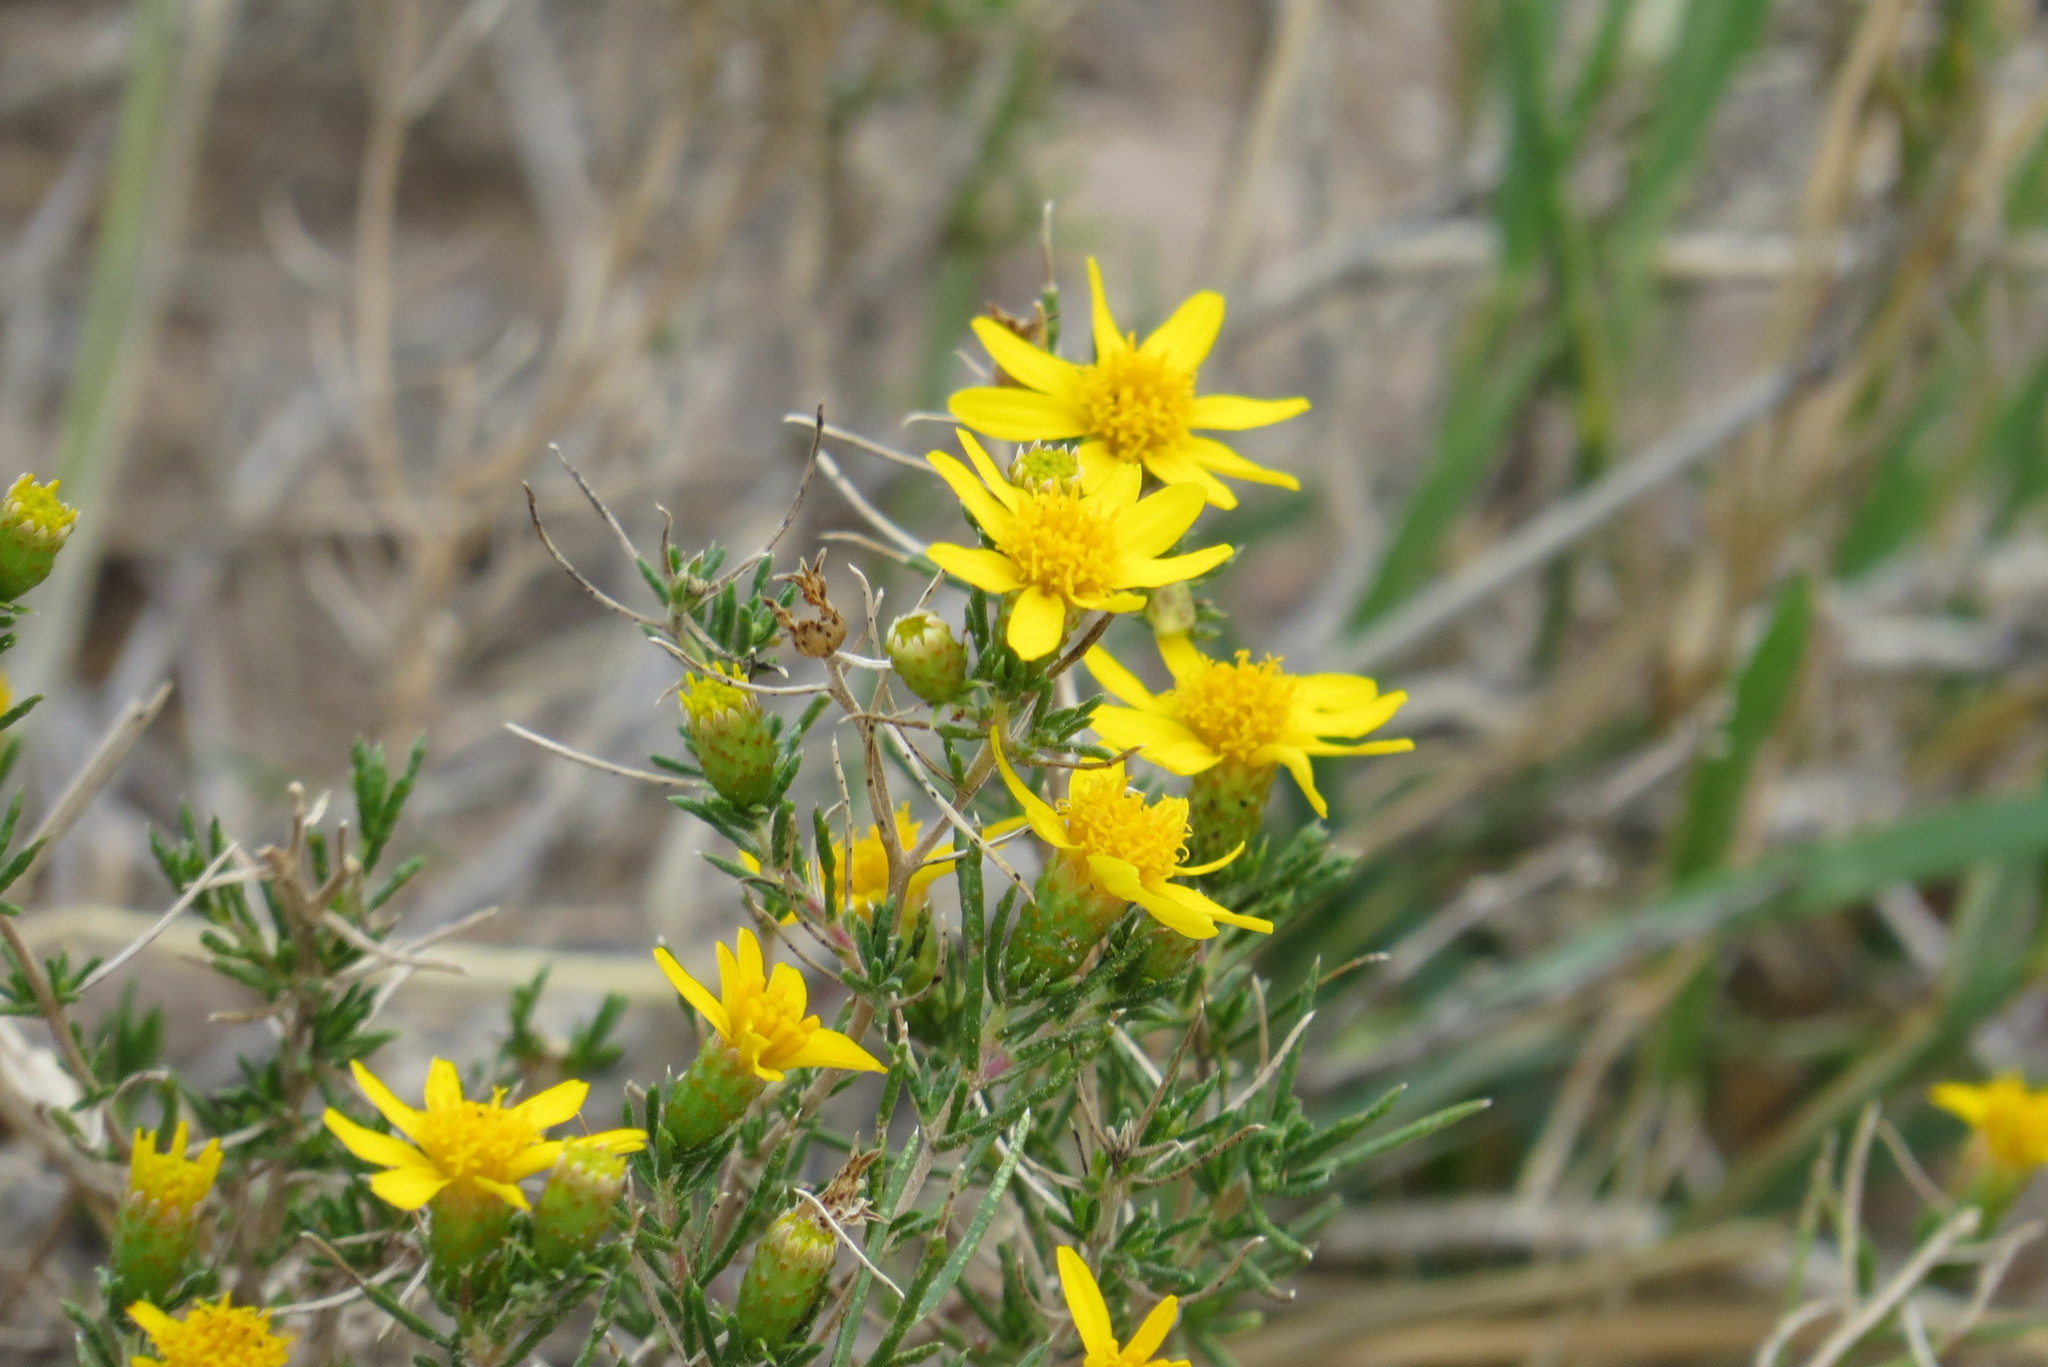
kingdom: Plantae
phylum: Tracheophyta
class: Magnoliopsida
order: Asterales
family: Asteraceae
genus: Thymophylla
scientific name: Thymophylla acerosa
